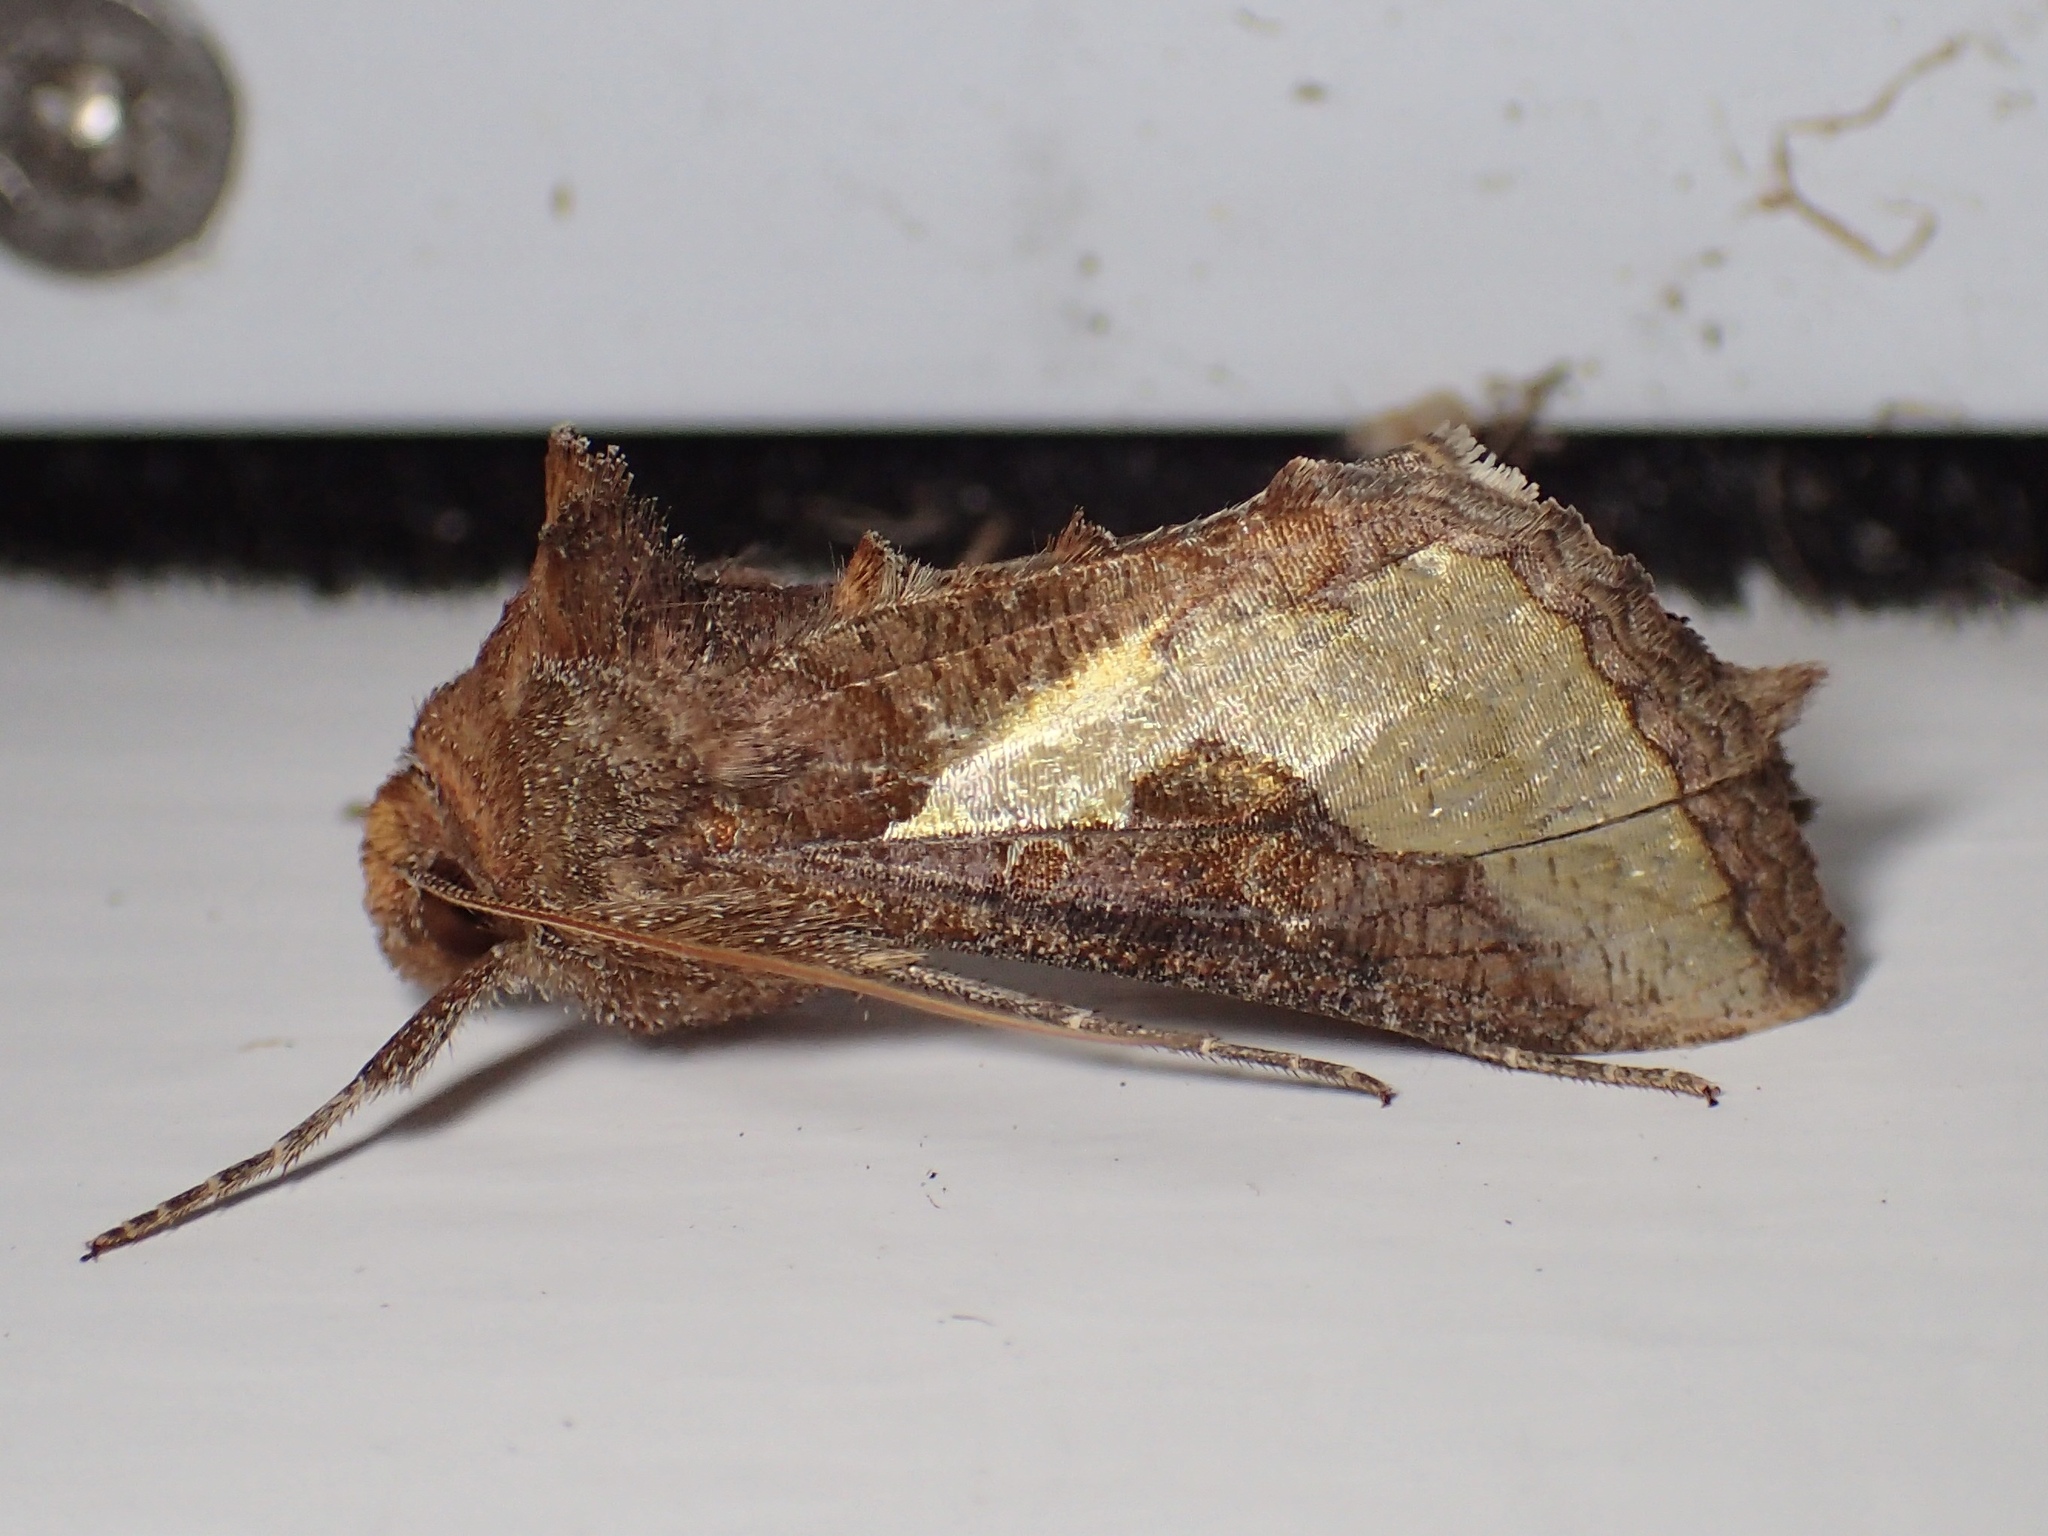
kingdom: Animalia
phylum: Arthropoda
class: Insecta
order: Lepidoptera
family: Noctuidae
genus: Thysanoplusia
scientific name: Thysanoplusia orichalcea
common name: Slender burnished brass, golden plusia
